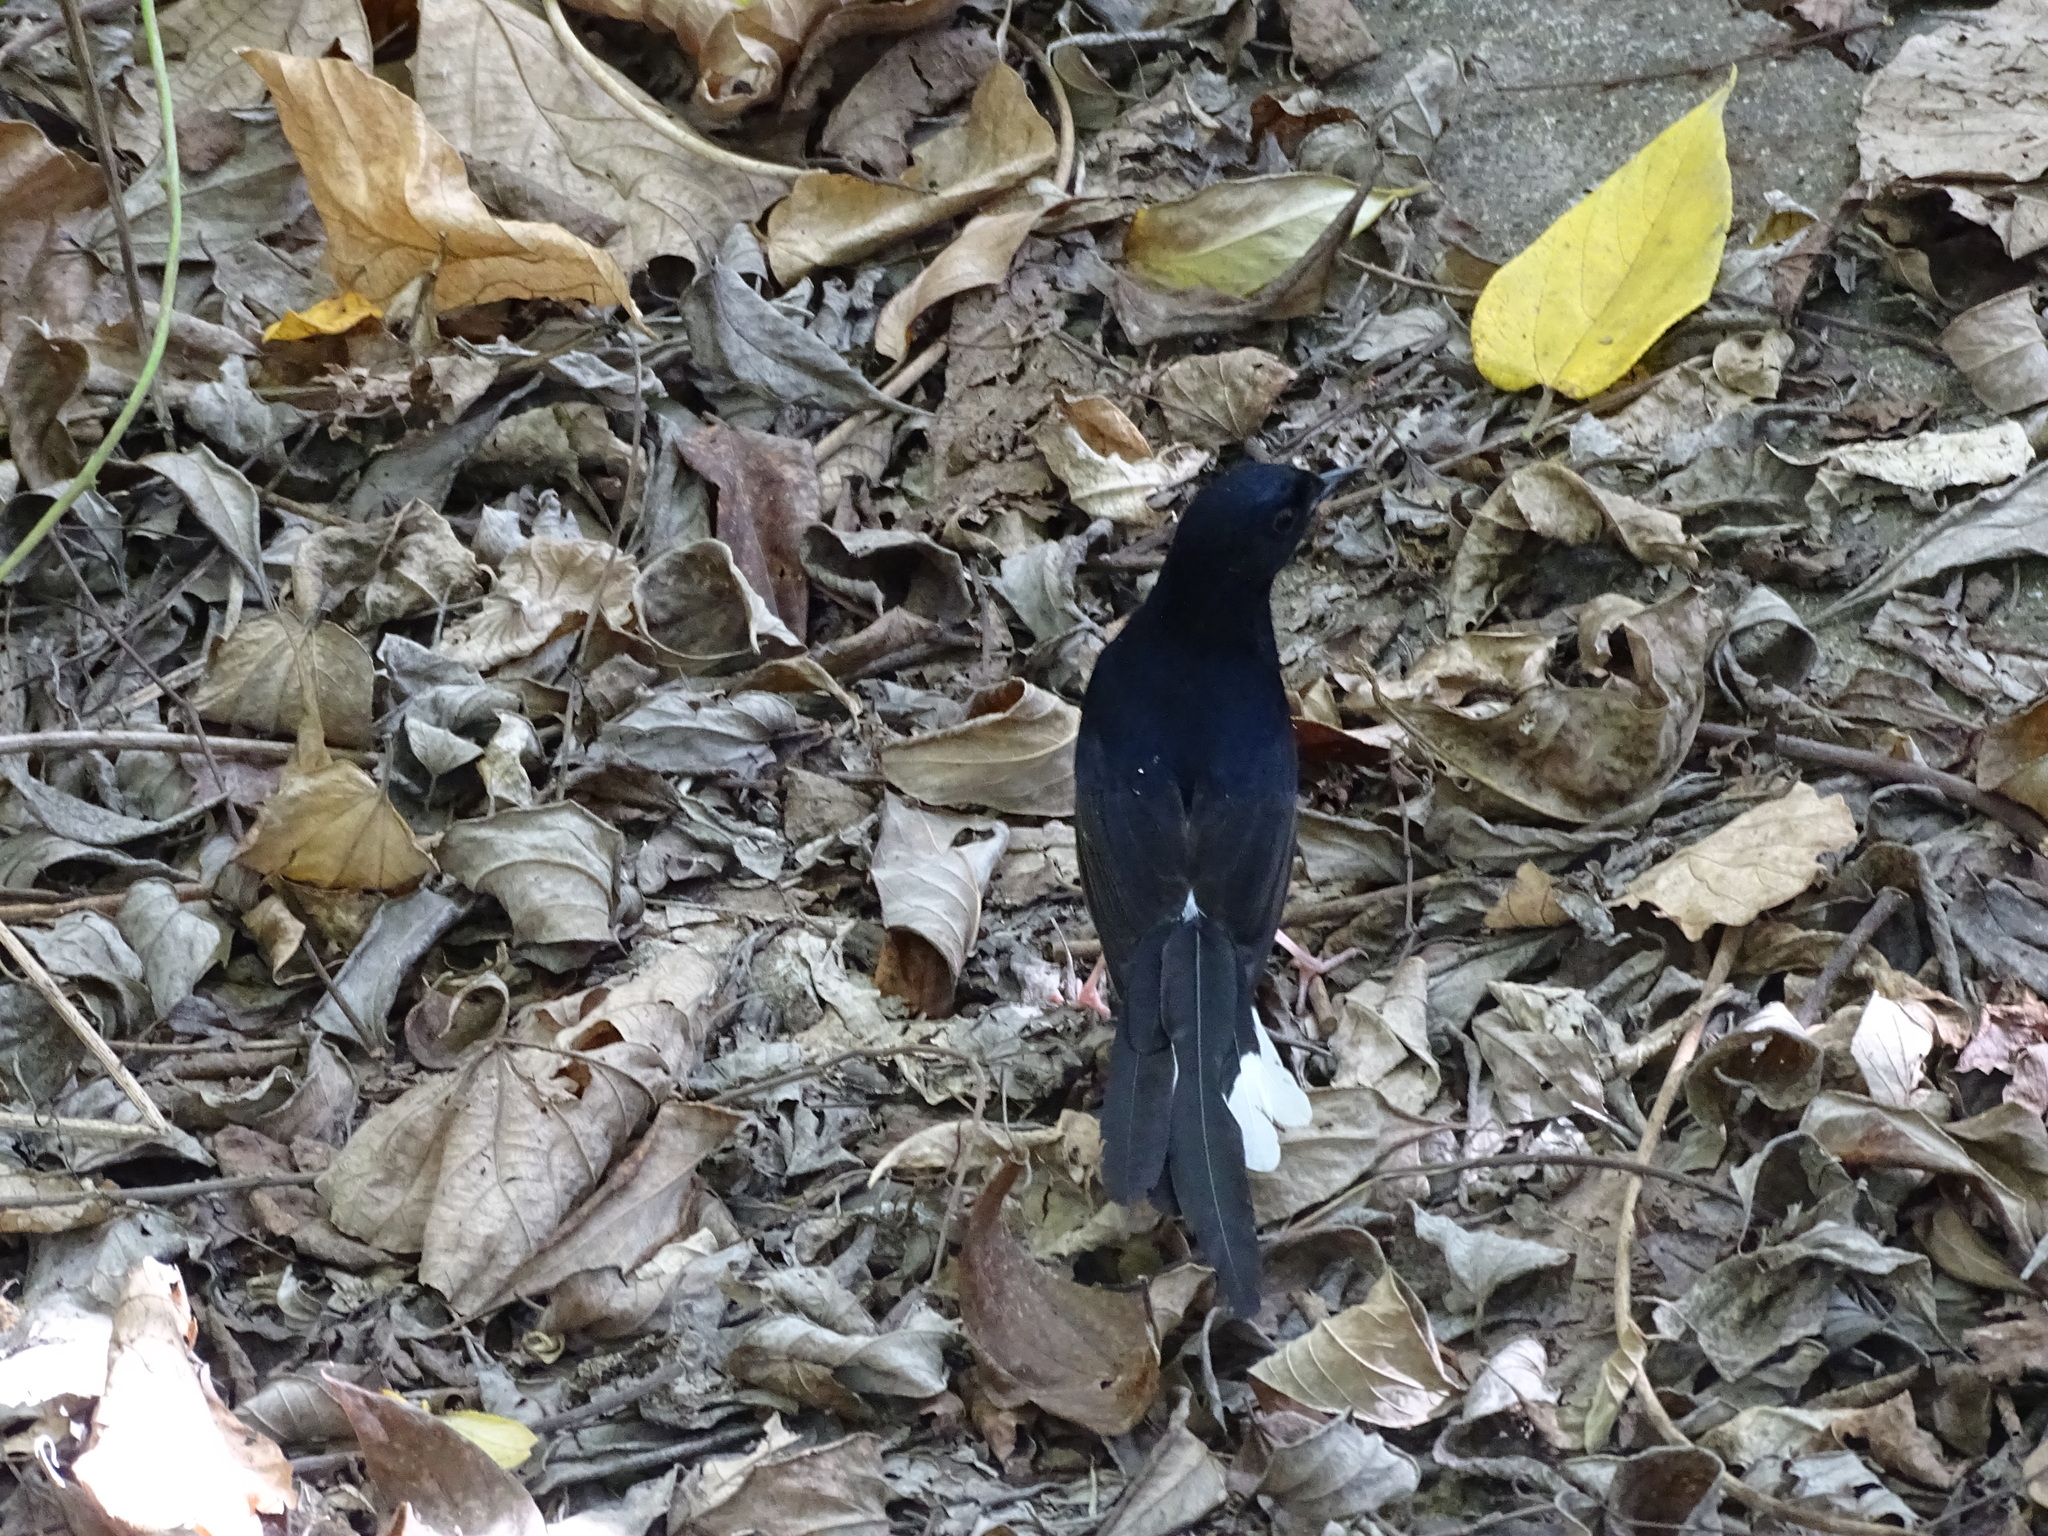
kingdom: Animalia
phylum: Chordata
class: Aves
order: Passeriformes
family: Muscicapidae
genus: Copsychus
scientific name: Copsychus malabaricus
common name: White-rumped shama
